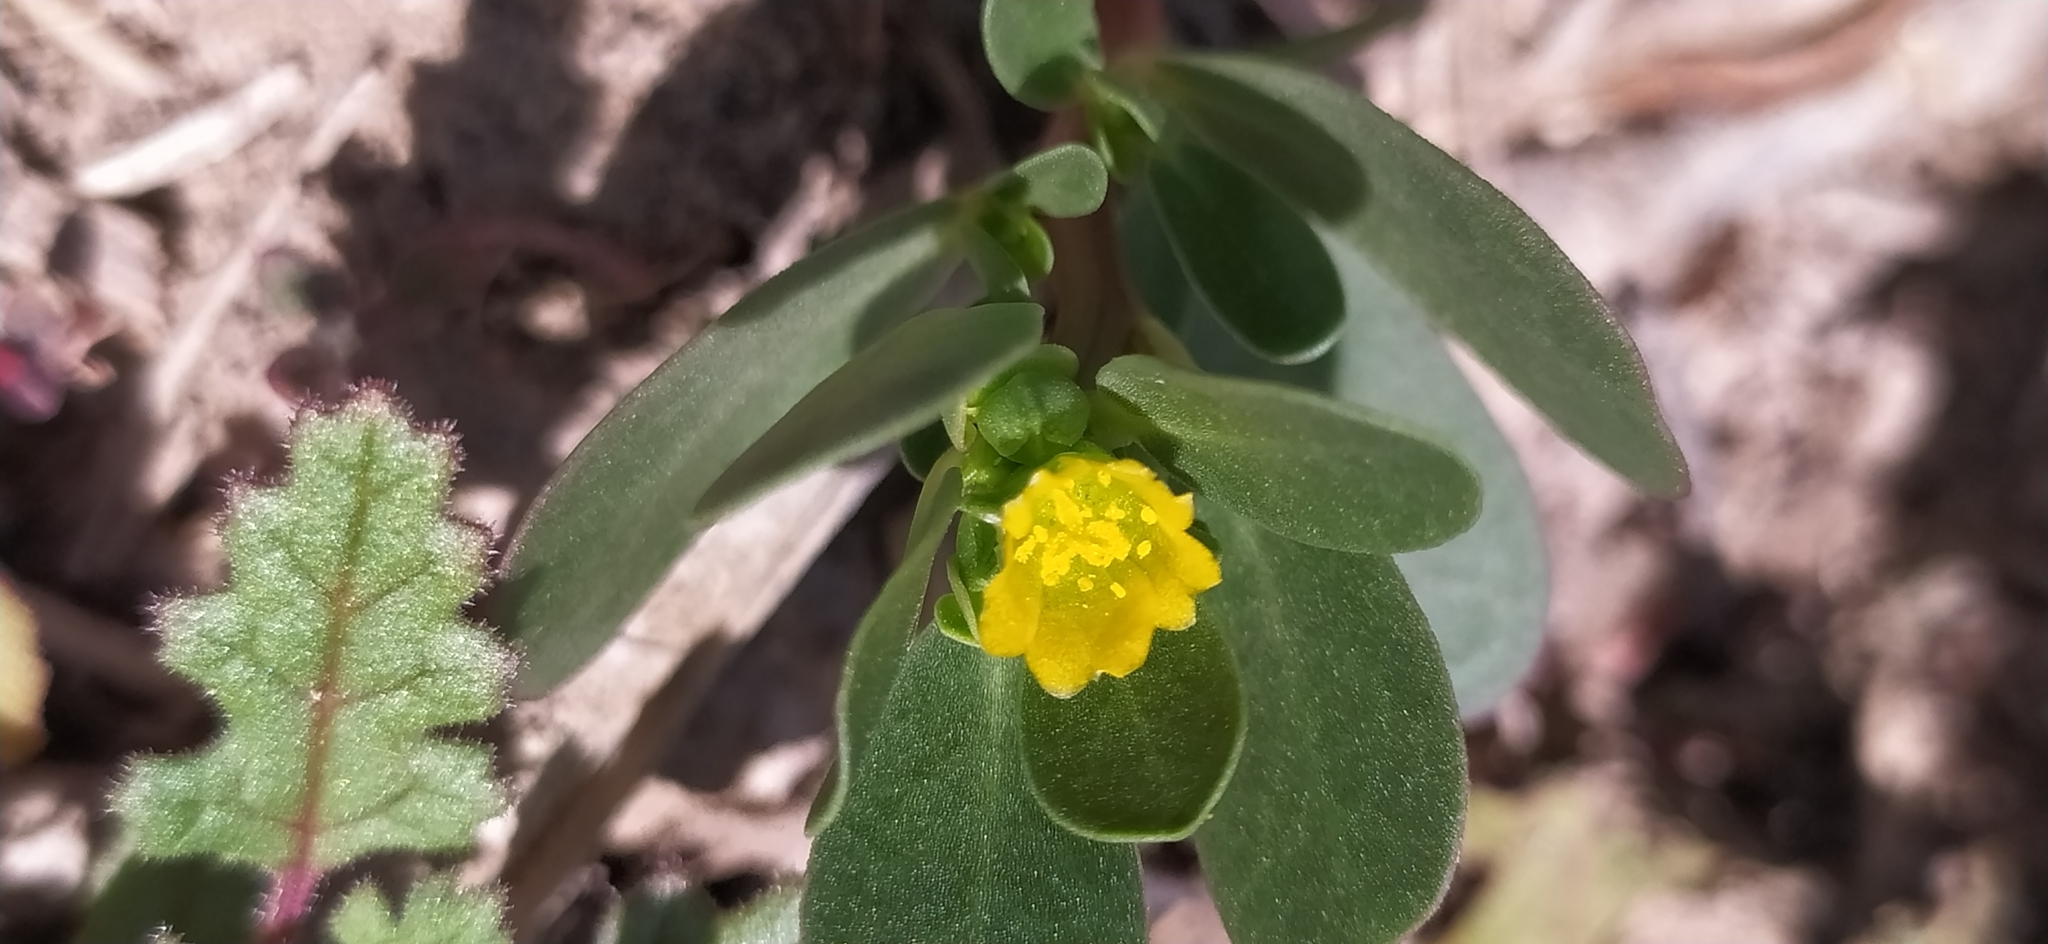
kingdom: Plantae
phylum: Tracheophyta
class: Magnoliopsida
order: Caryophyllales
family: Portulacaceae
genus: Portulaca
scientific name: Portulaca oleracea
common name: Common purslane
